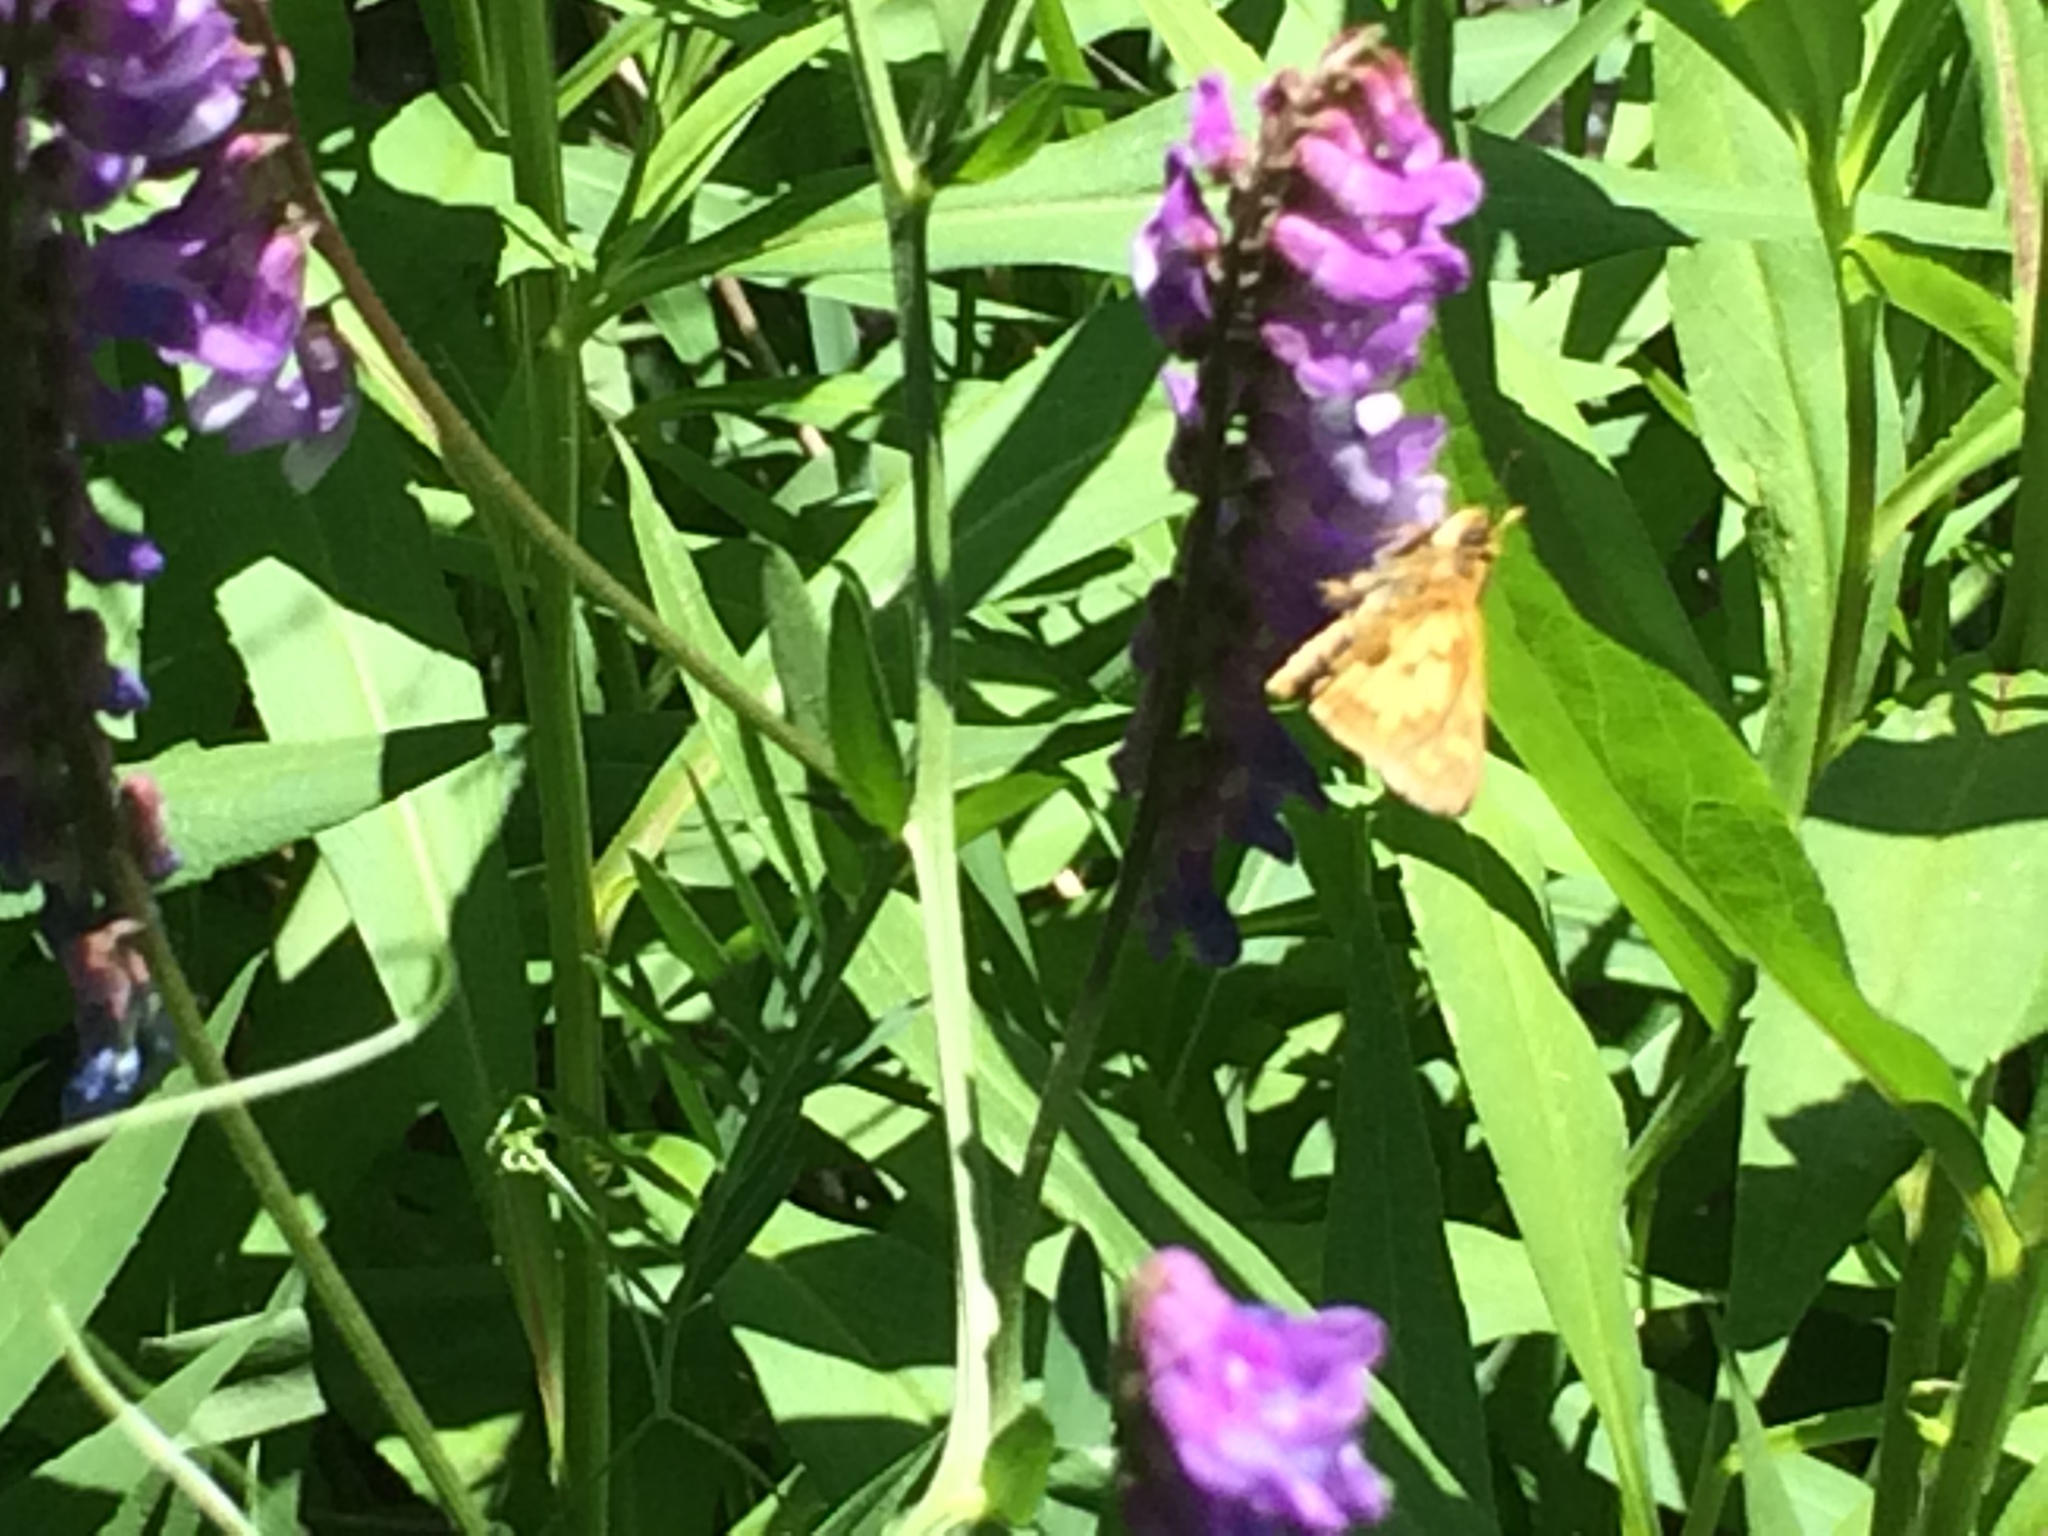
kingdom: Animalia
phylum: Arthropoda
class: Insecta
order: Lepidoptera
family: Hesperiidae
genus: Polites
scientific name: Polites coras
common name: Peck's skipper
